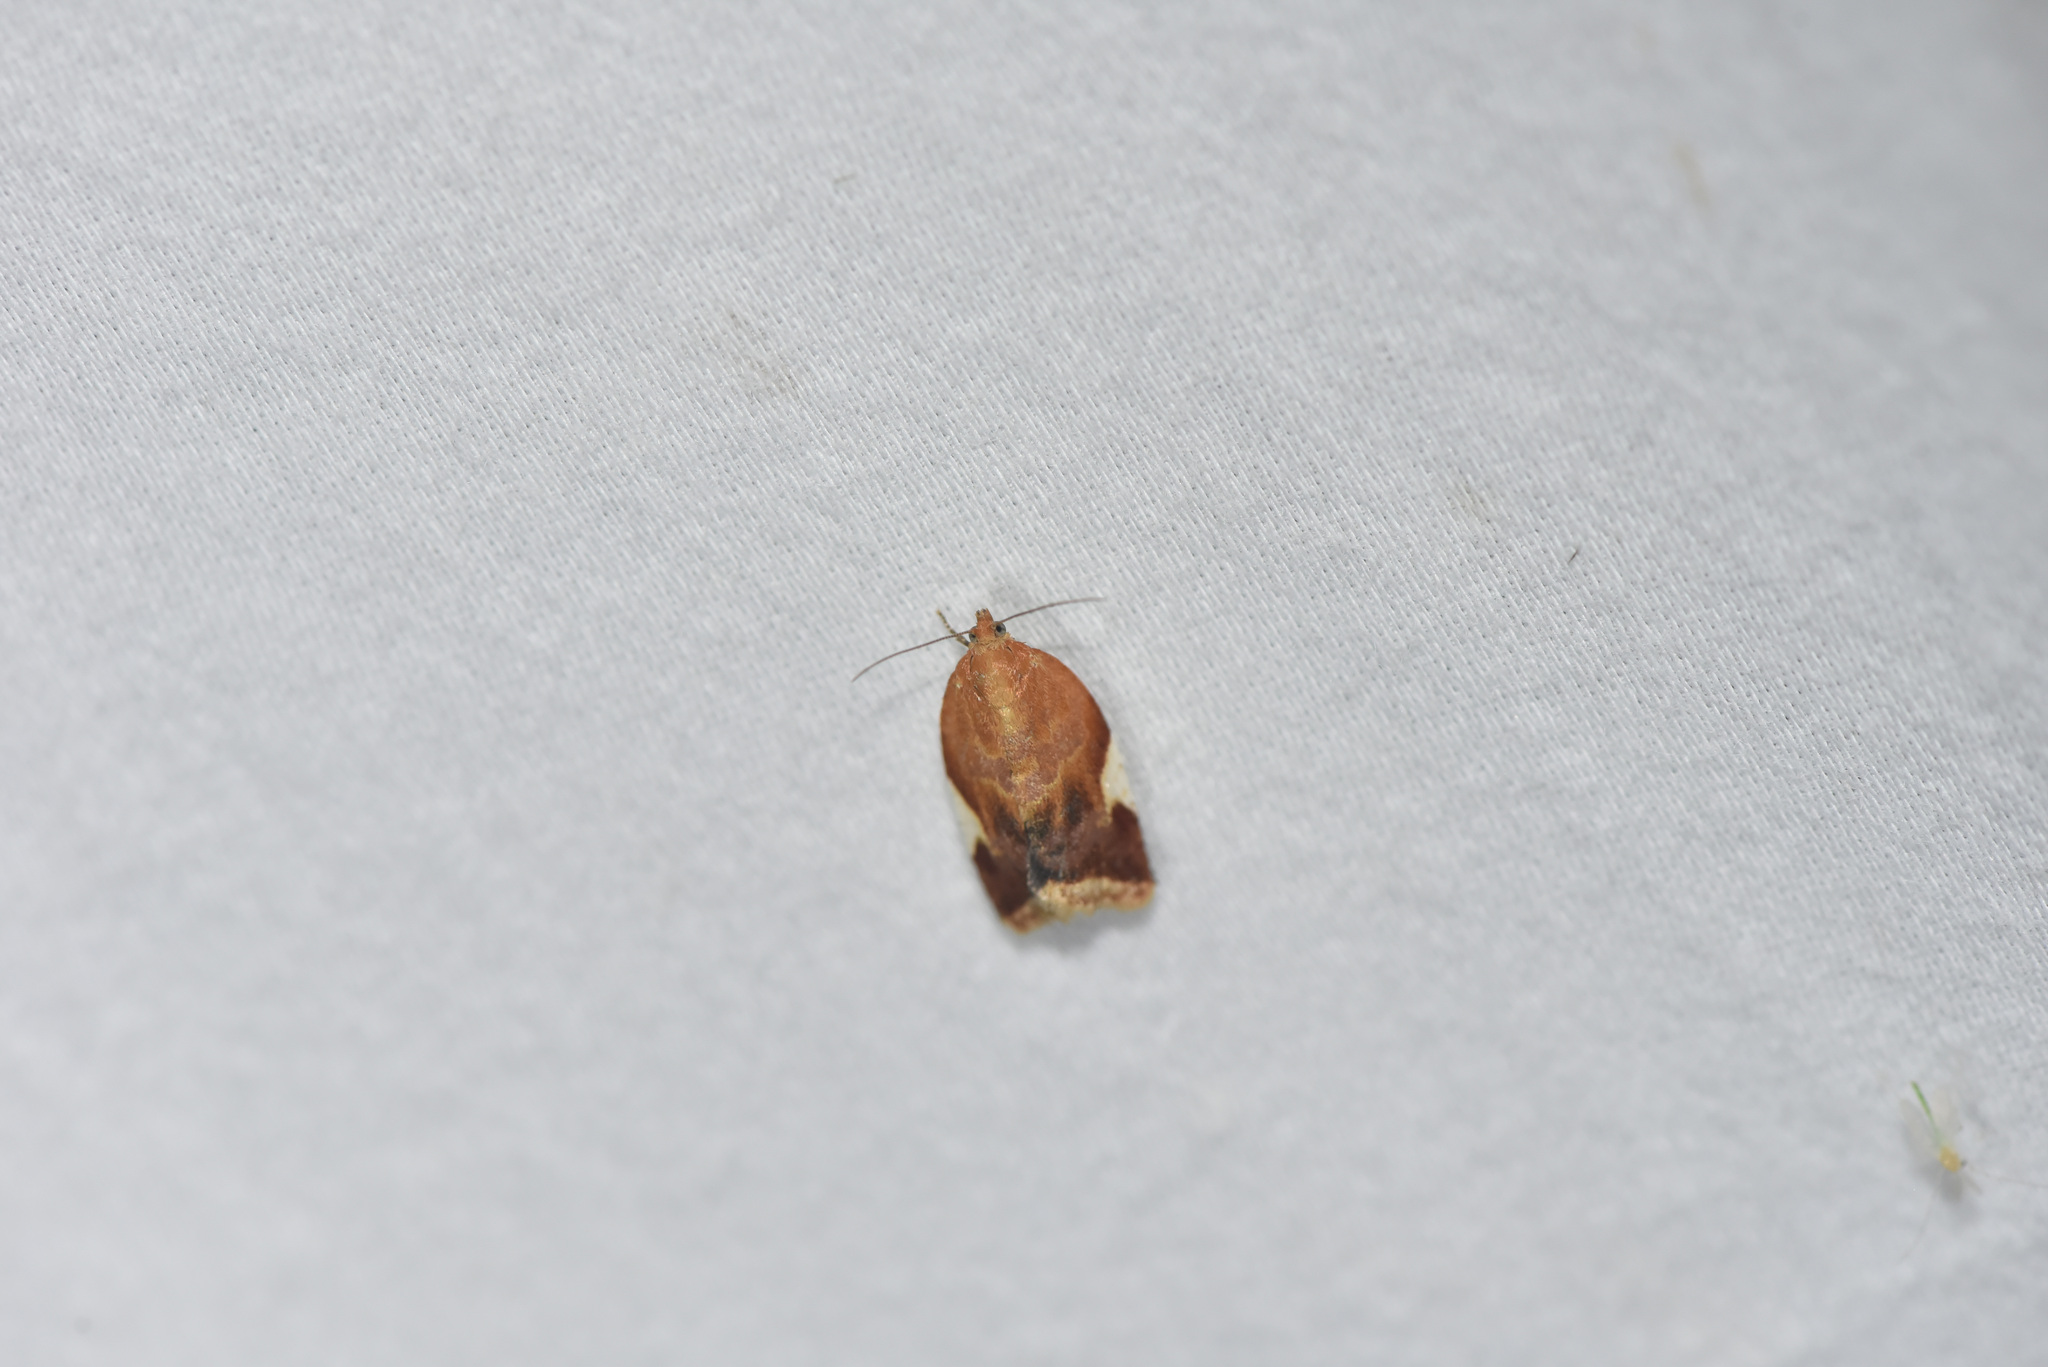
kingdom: Animalia
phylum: Arthropoda
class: Insecta
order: Lepidoptera
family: Tortricidae
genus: Clepsis
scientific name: Clepsis persicana
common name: White triangle tortrix
